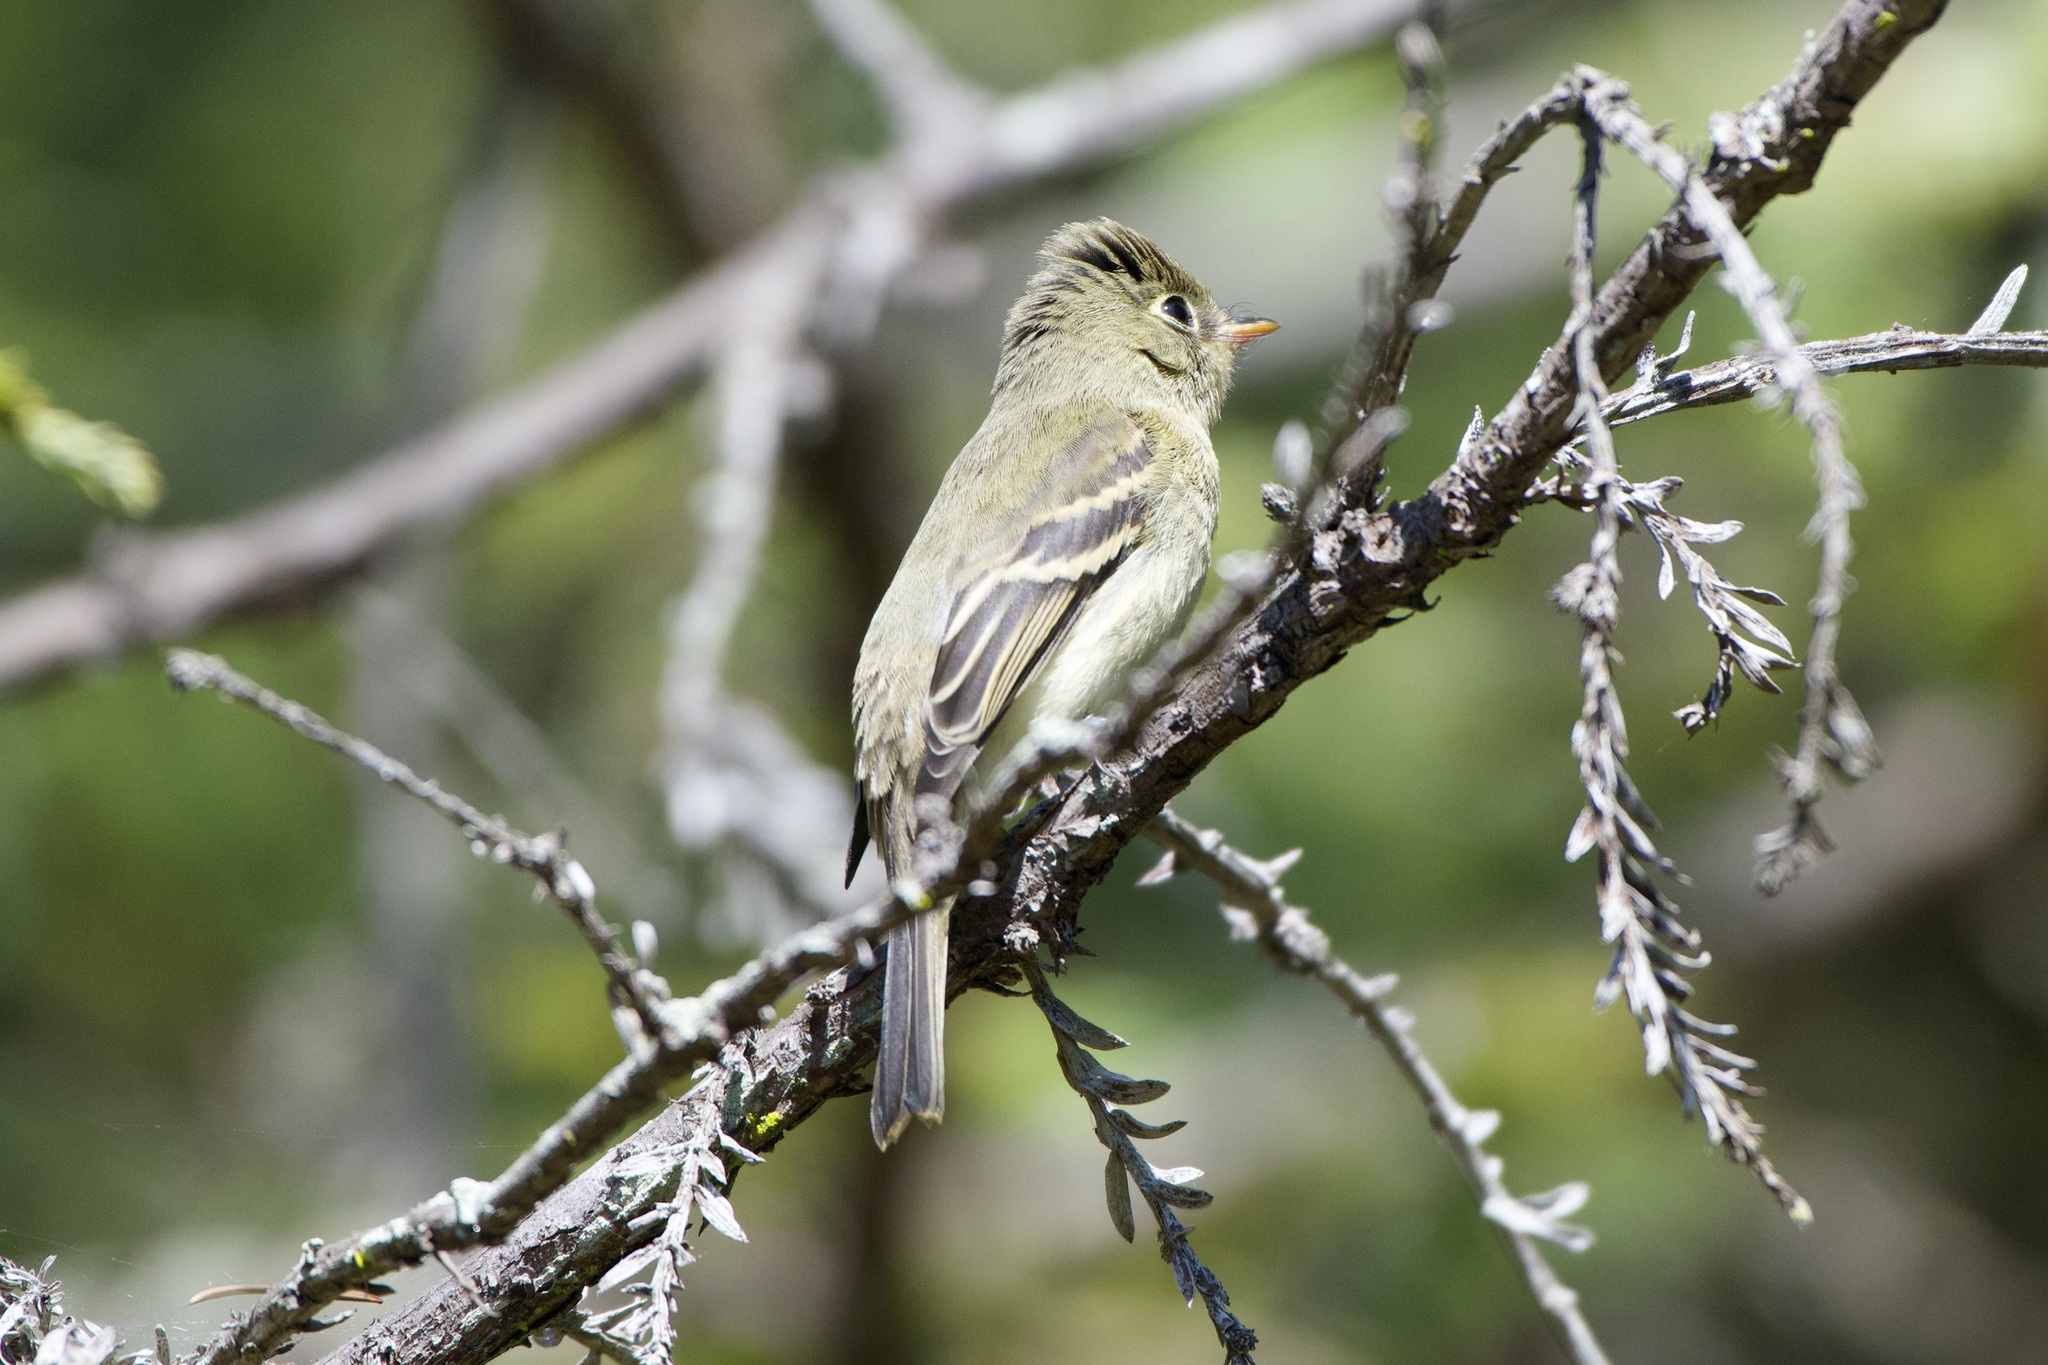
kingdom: Animalia
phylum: Chordata
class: Aves
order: Passeriformes
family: Tyrannidae
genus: Empidonax
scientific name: Empidonax difficilis
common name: Pacific-slope flycatcher
